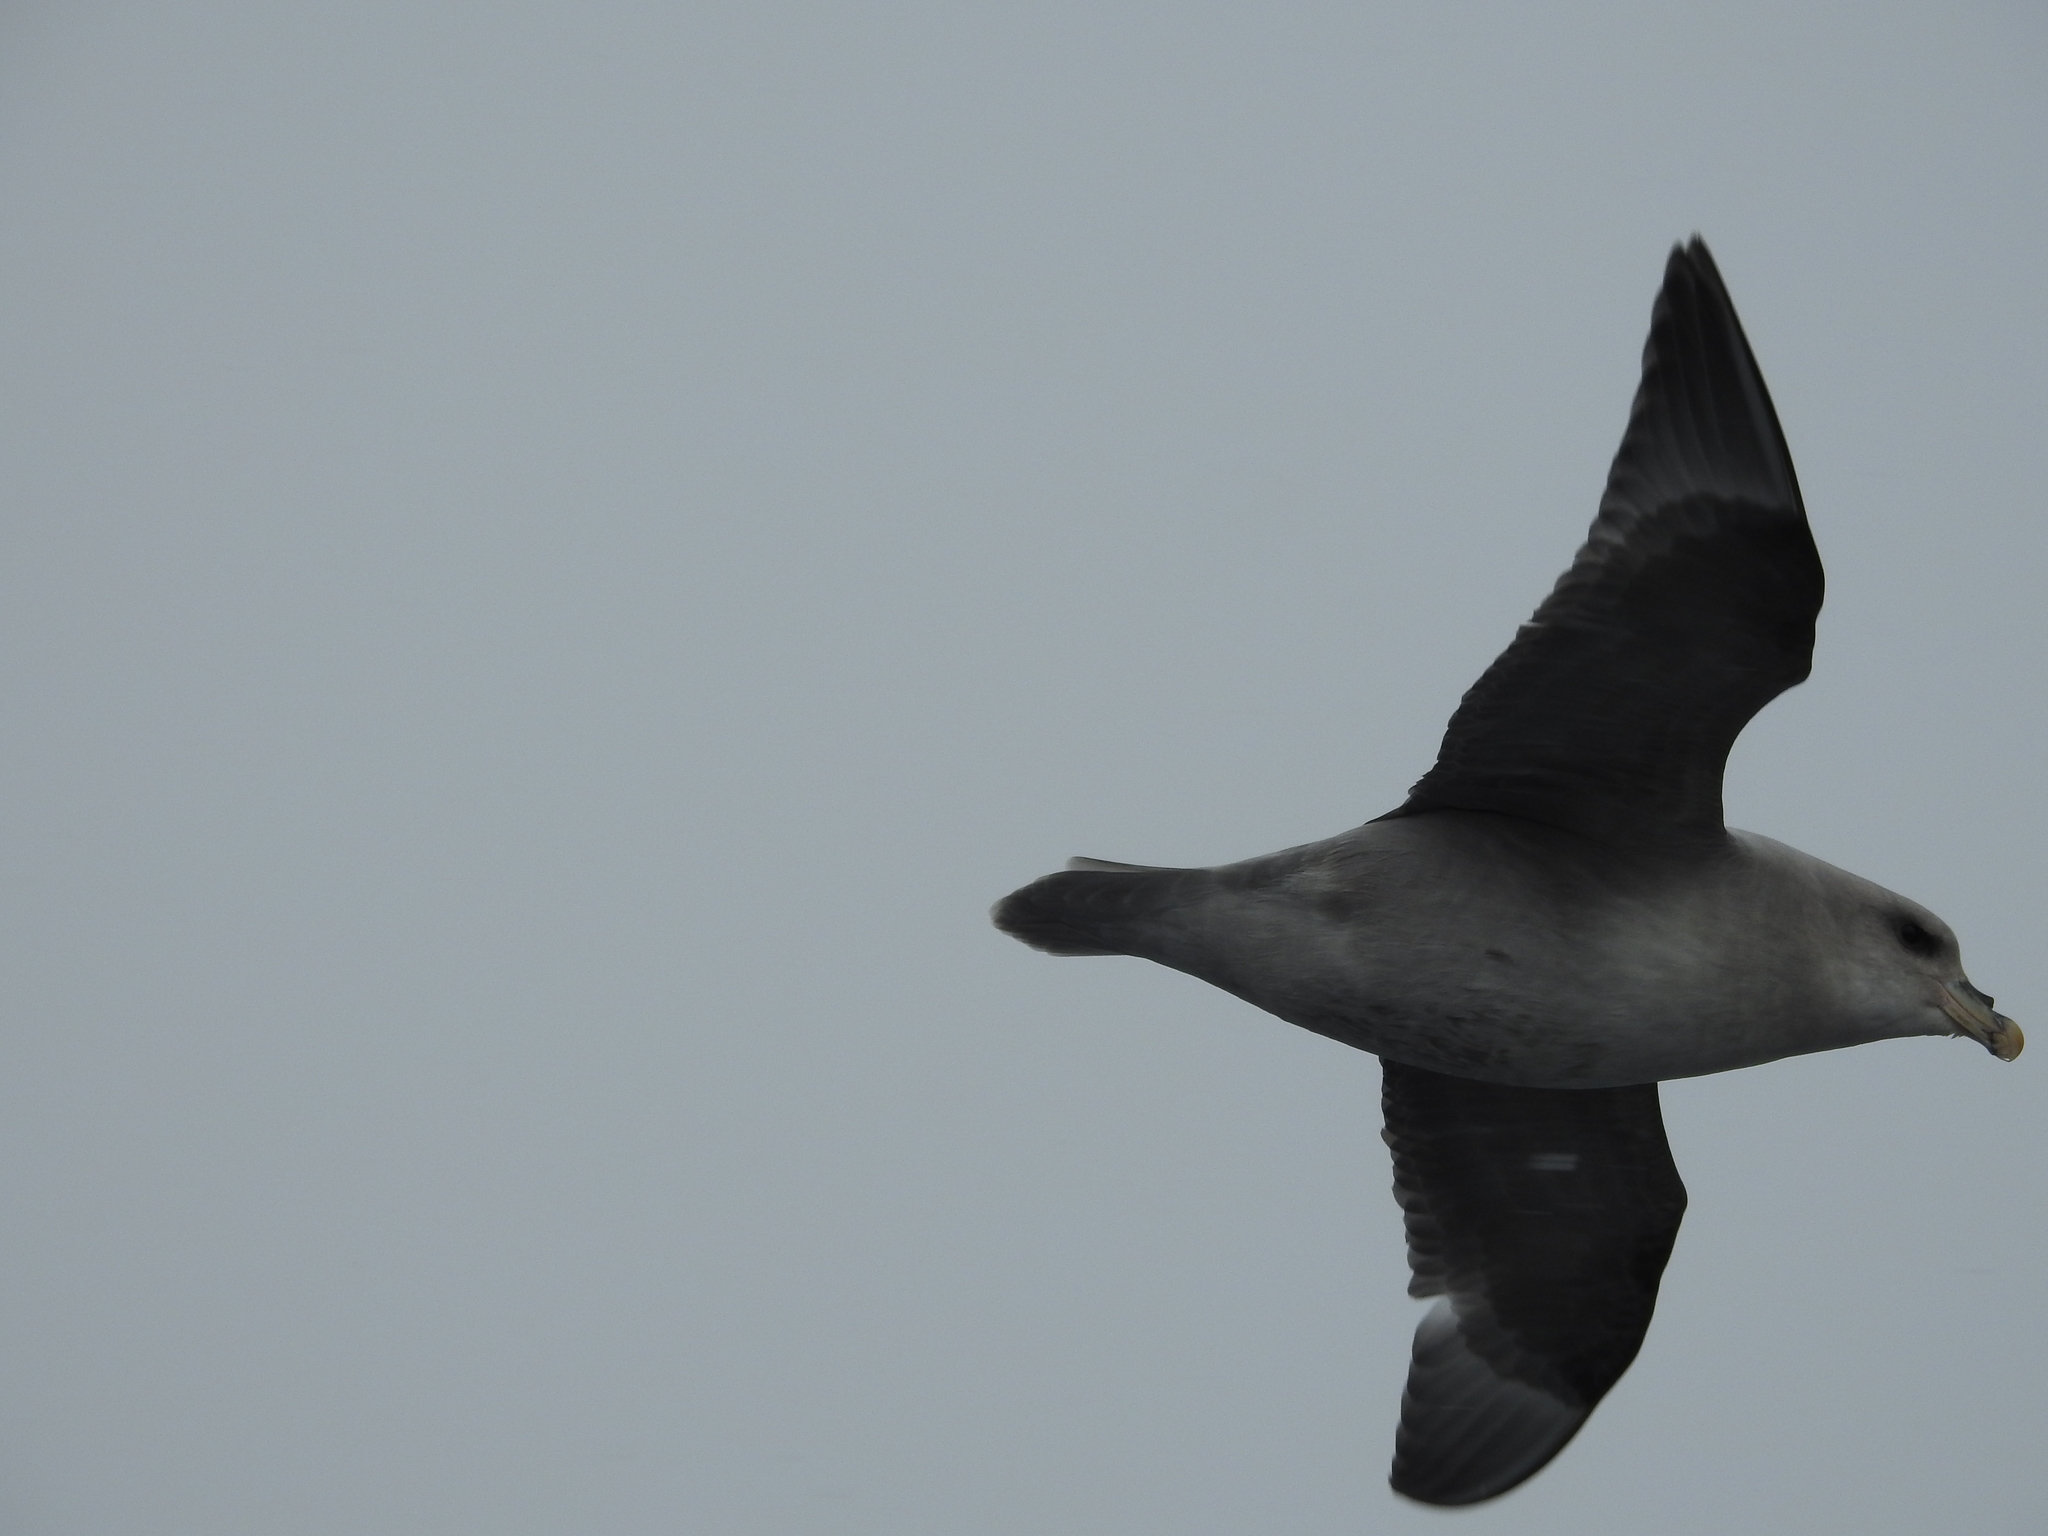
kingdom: Animalia
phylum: Chordata
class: Aves
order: Procellariiformes
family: Procellariidae
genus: Fulmarus
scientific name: Fulmarus glacialis
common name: Northern fulmar
